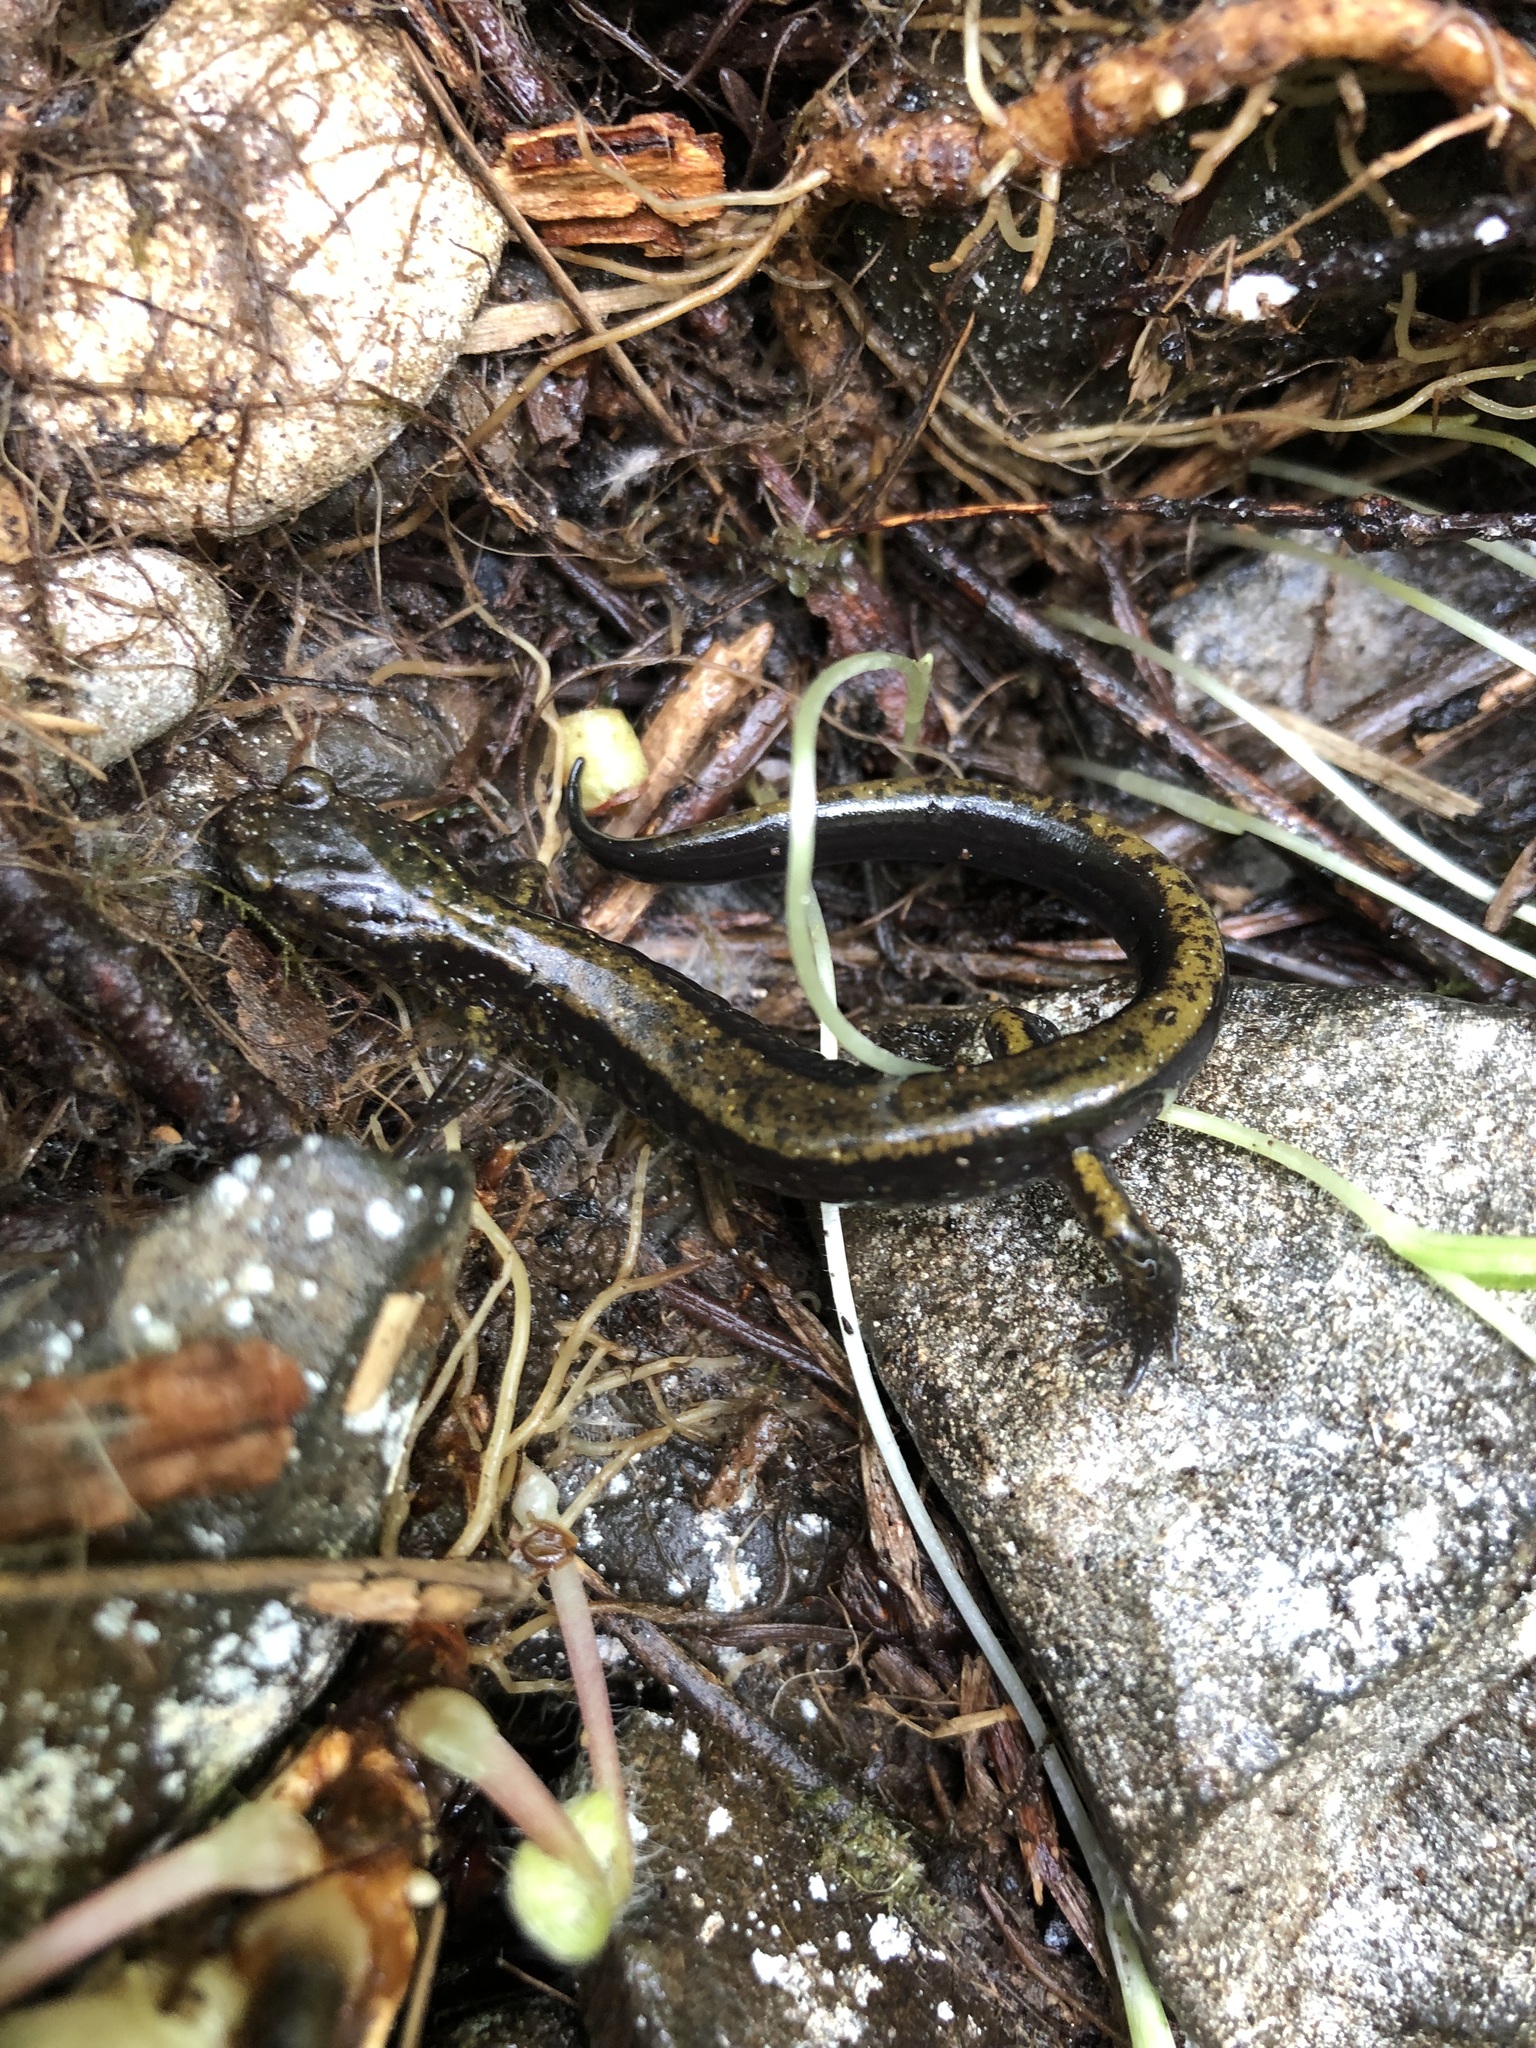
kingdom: Animalia
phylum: Chordata
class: Amphibia
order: Caudata
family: Plethodontidae
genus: Plethodon
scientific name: Plethodon dunni
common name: Dunn's salamander
